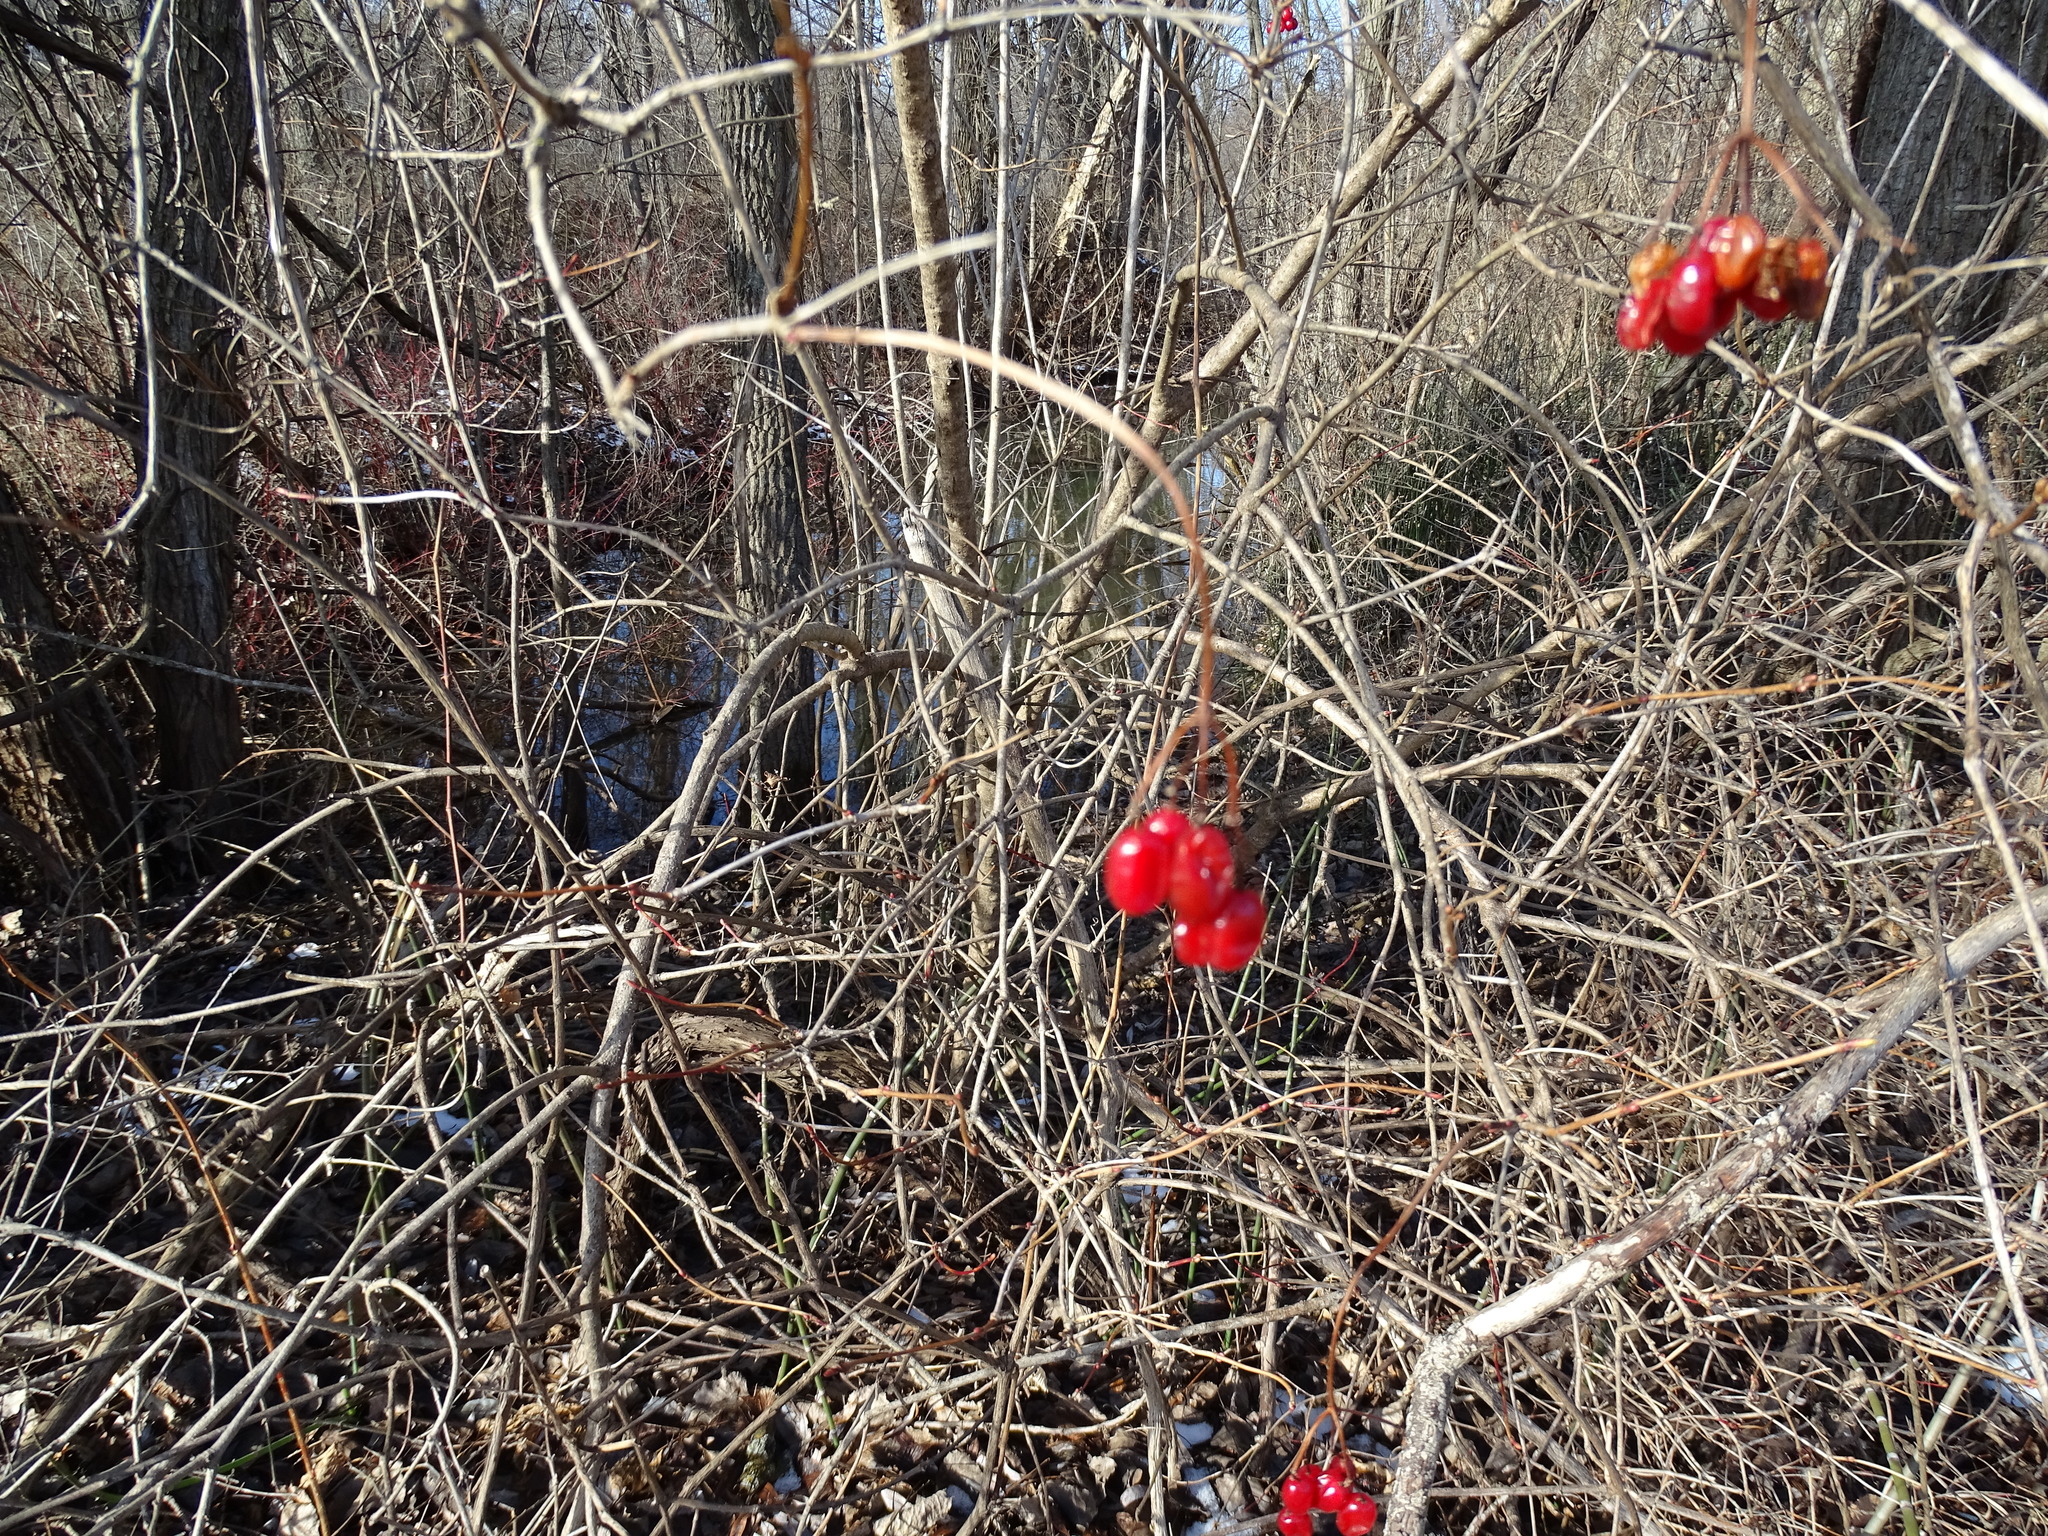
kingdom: Plantae
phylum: Tracheophyta
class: Magnoliopsida
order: Dipsacales
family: Viburnaceae
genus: Viburnum
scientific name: Viburnum opulus
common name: Guelder-rose
